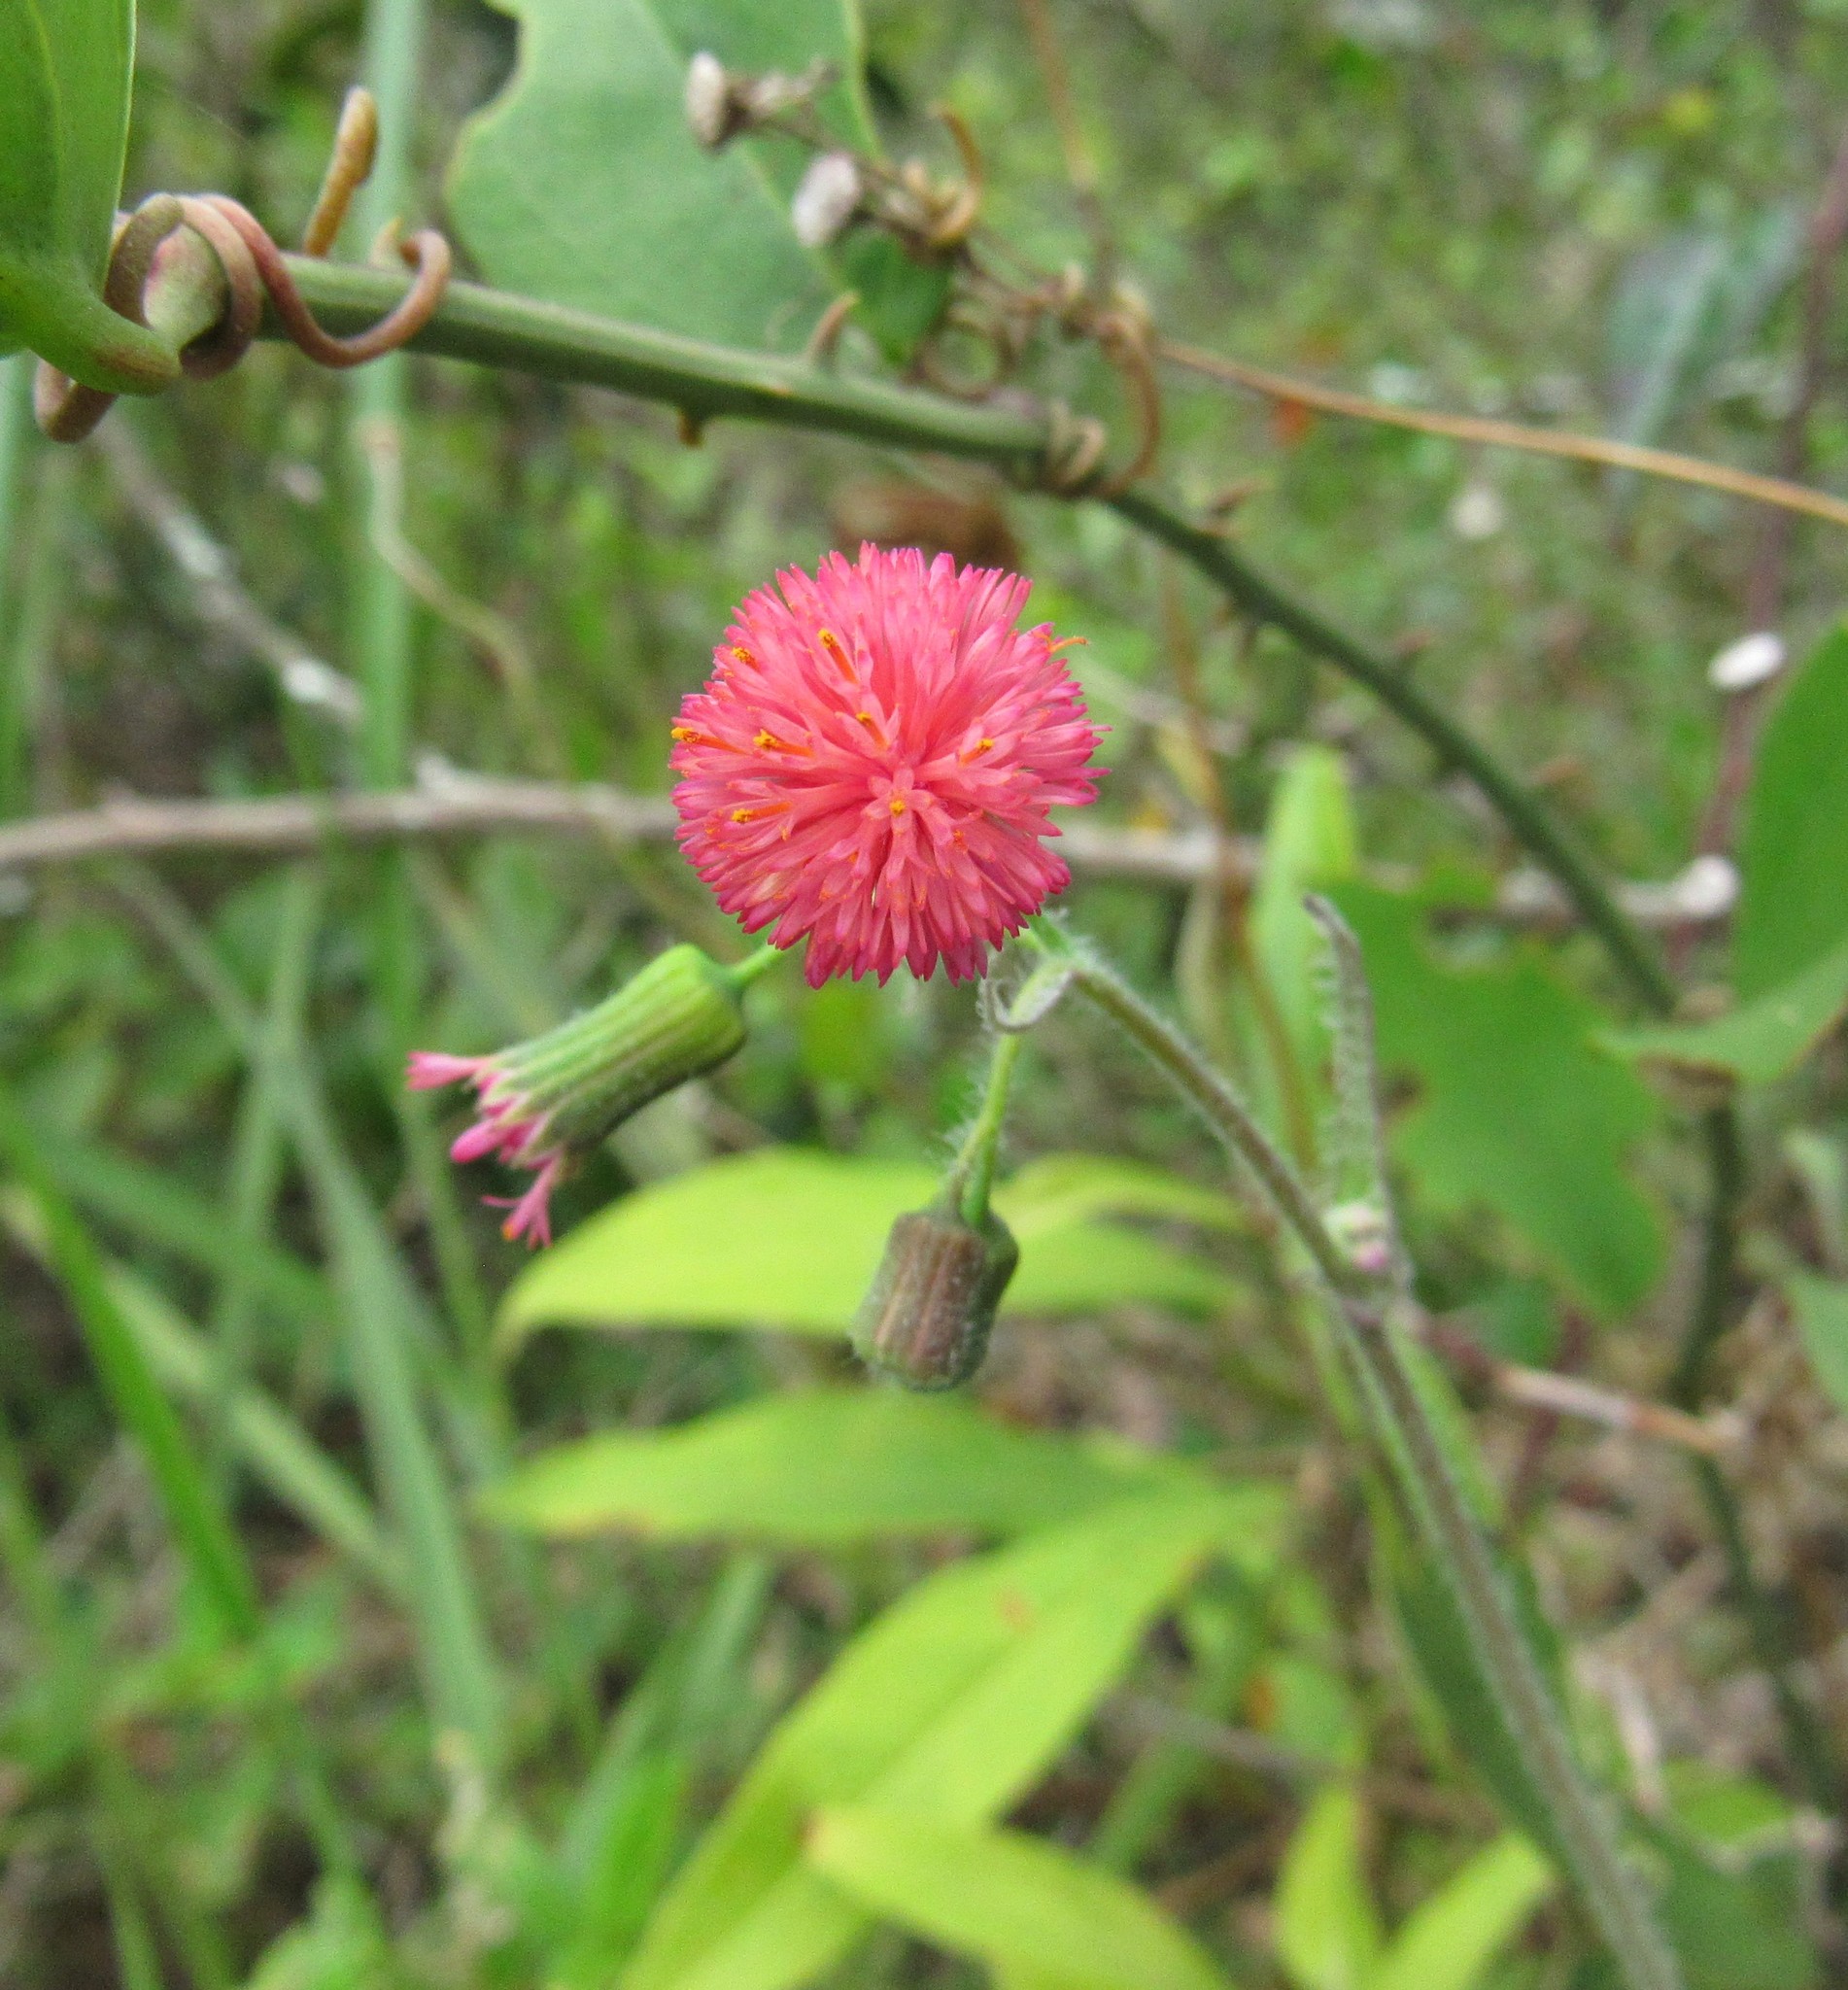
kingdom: Plantae
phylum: Tracheophyta
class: Magnoliopsida
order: Asterales
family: Asteraceae
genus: Emilia
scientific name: Emilia fosbergii
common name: Florida tasselflower
